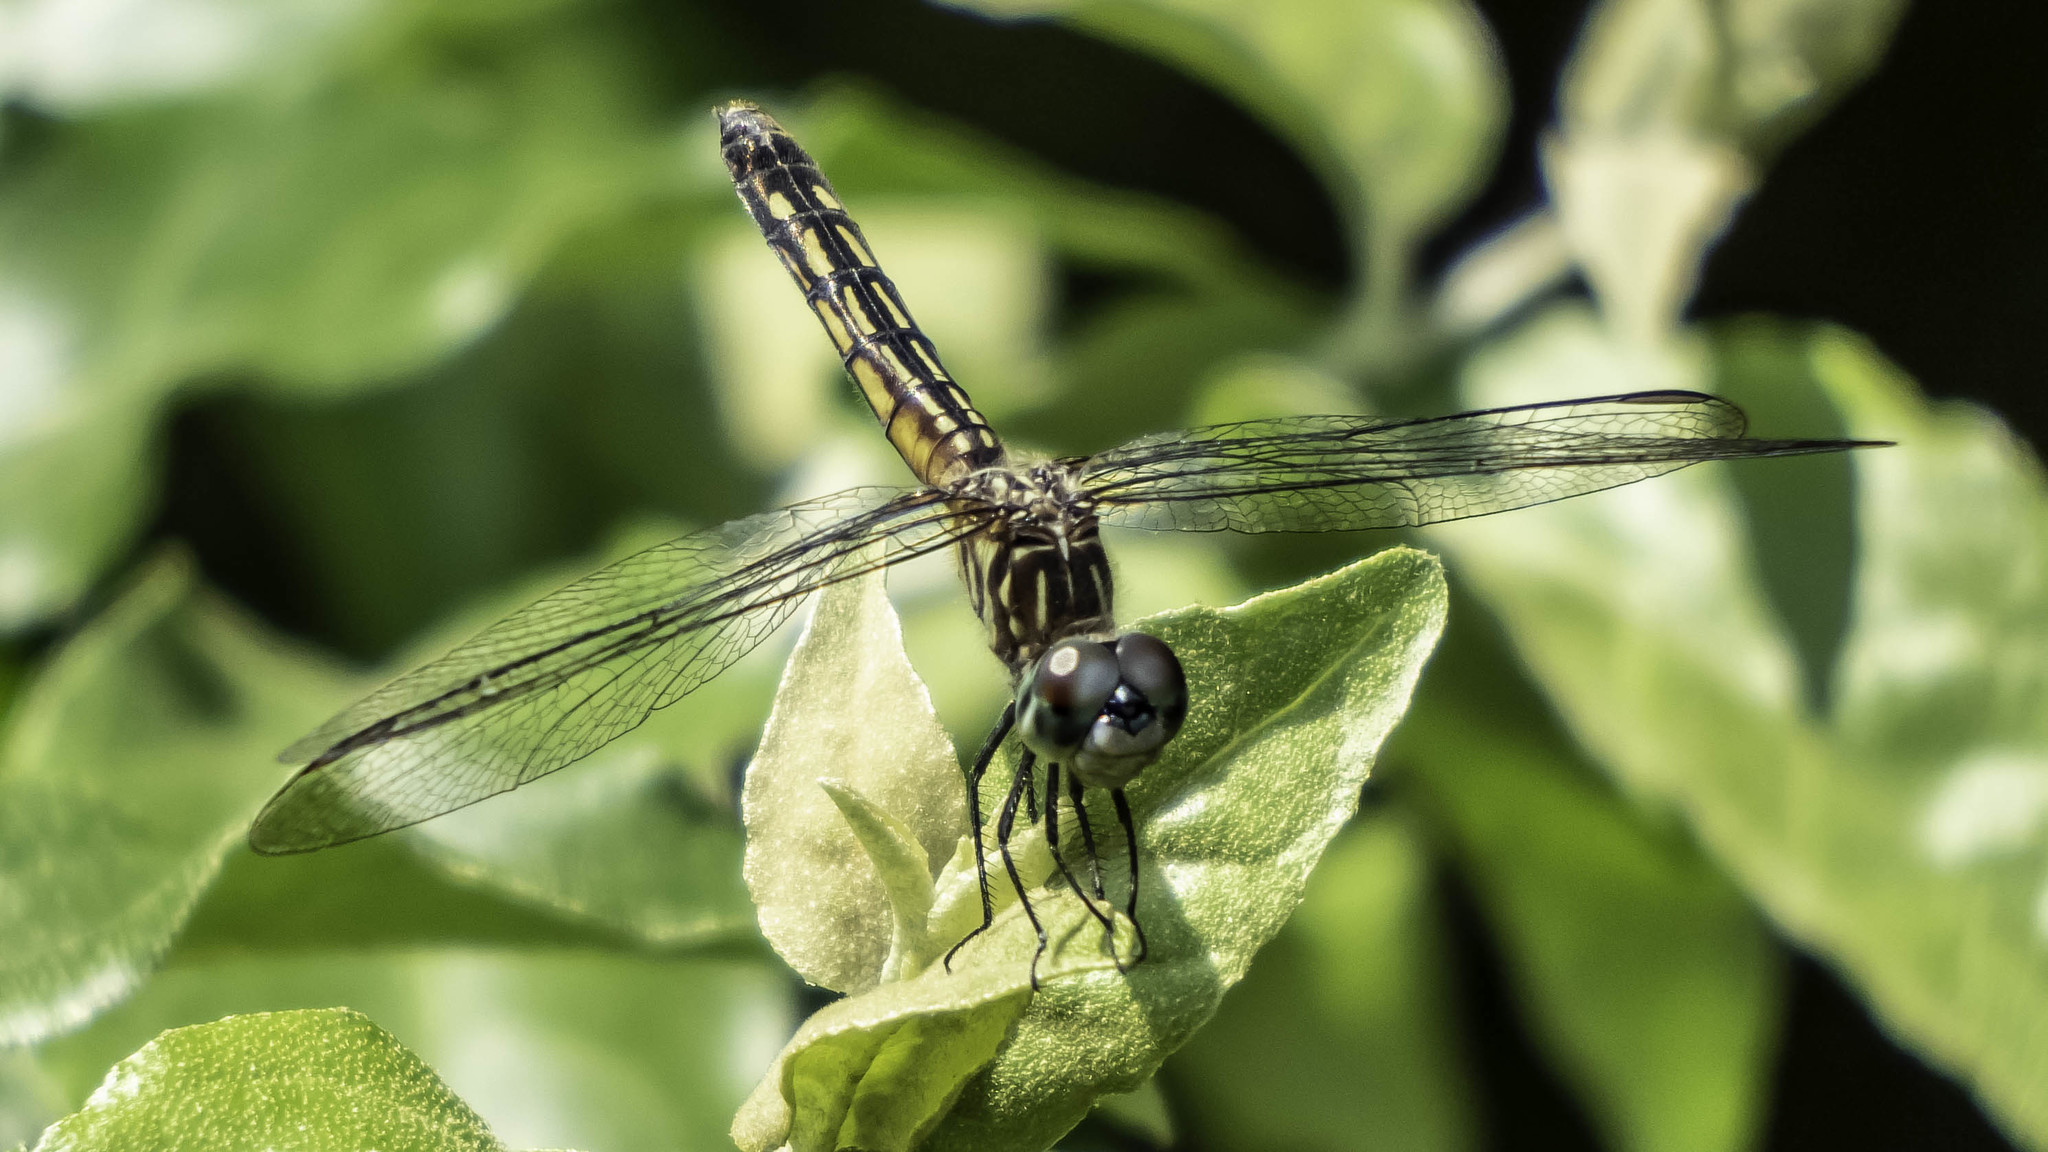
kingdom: Animalia
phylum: Arthropoda
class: Insecta
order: Odonata
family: Libellulidae
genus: Pachydiplax
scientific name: Pachydiplax longipennis
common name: Blue dasher
